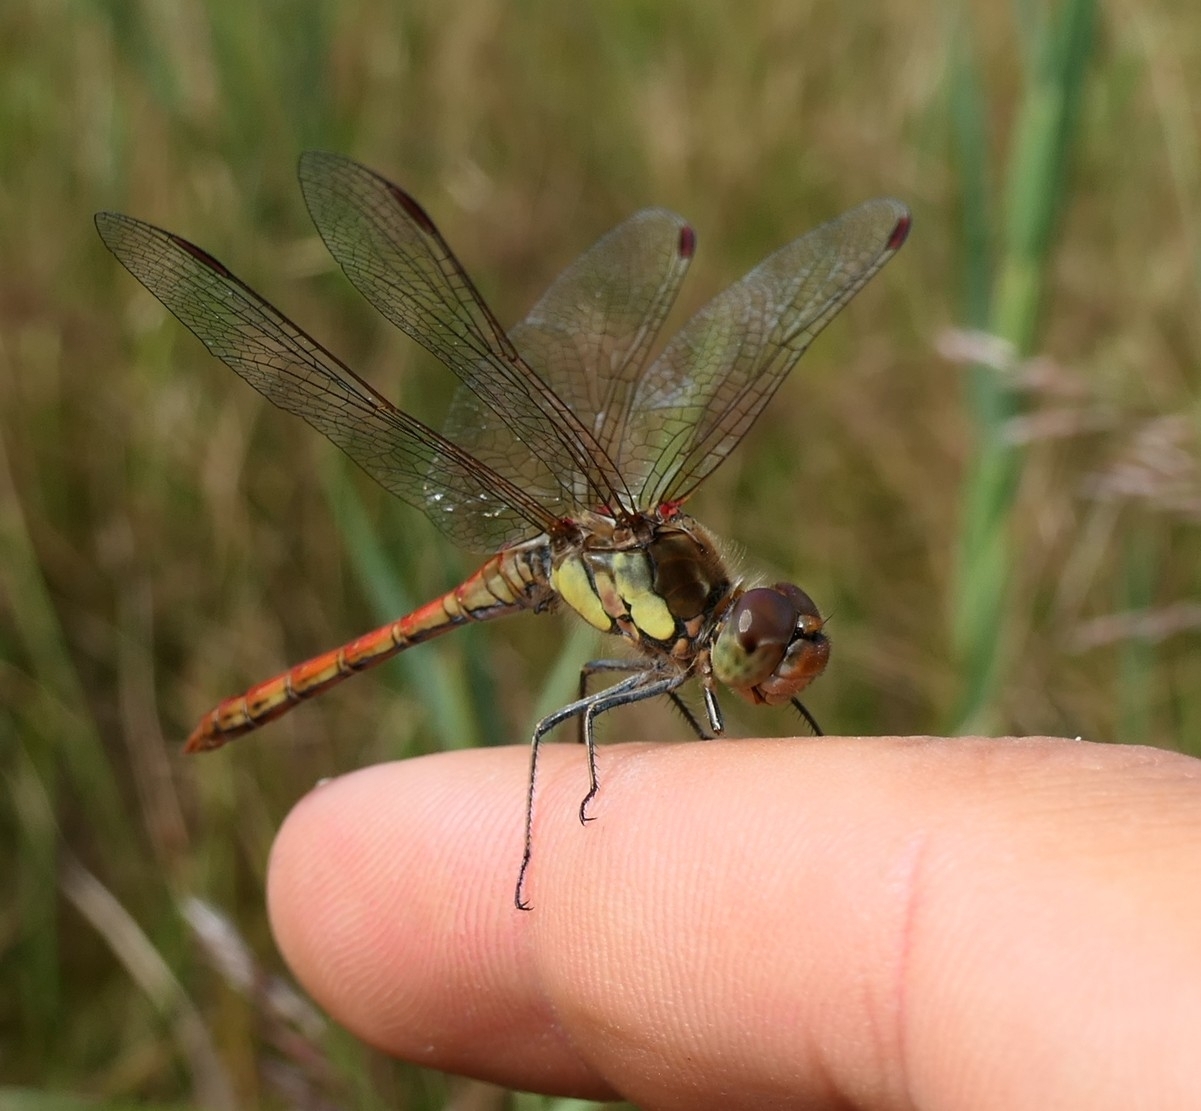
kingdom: Animalia
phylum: Arthropoda
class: Insecta
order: Odonata
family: Libellulidae
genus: Sympetrum
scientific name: Sympetrum striolatum
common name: Common darter
